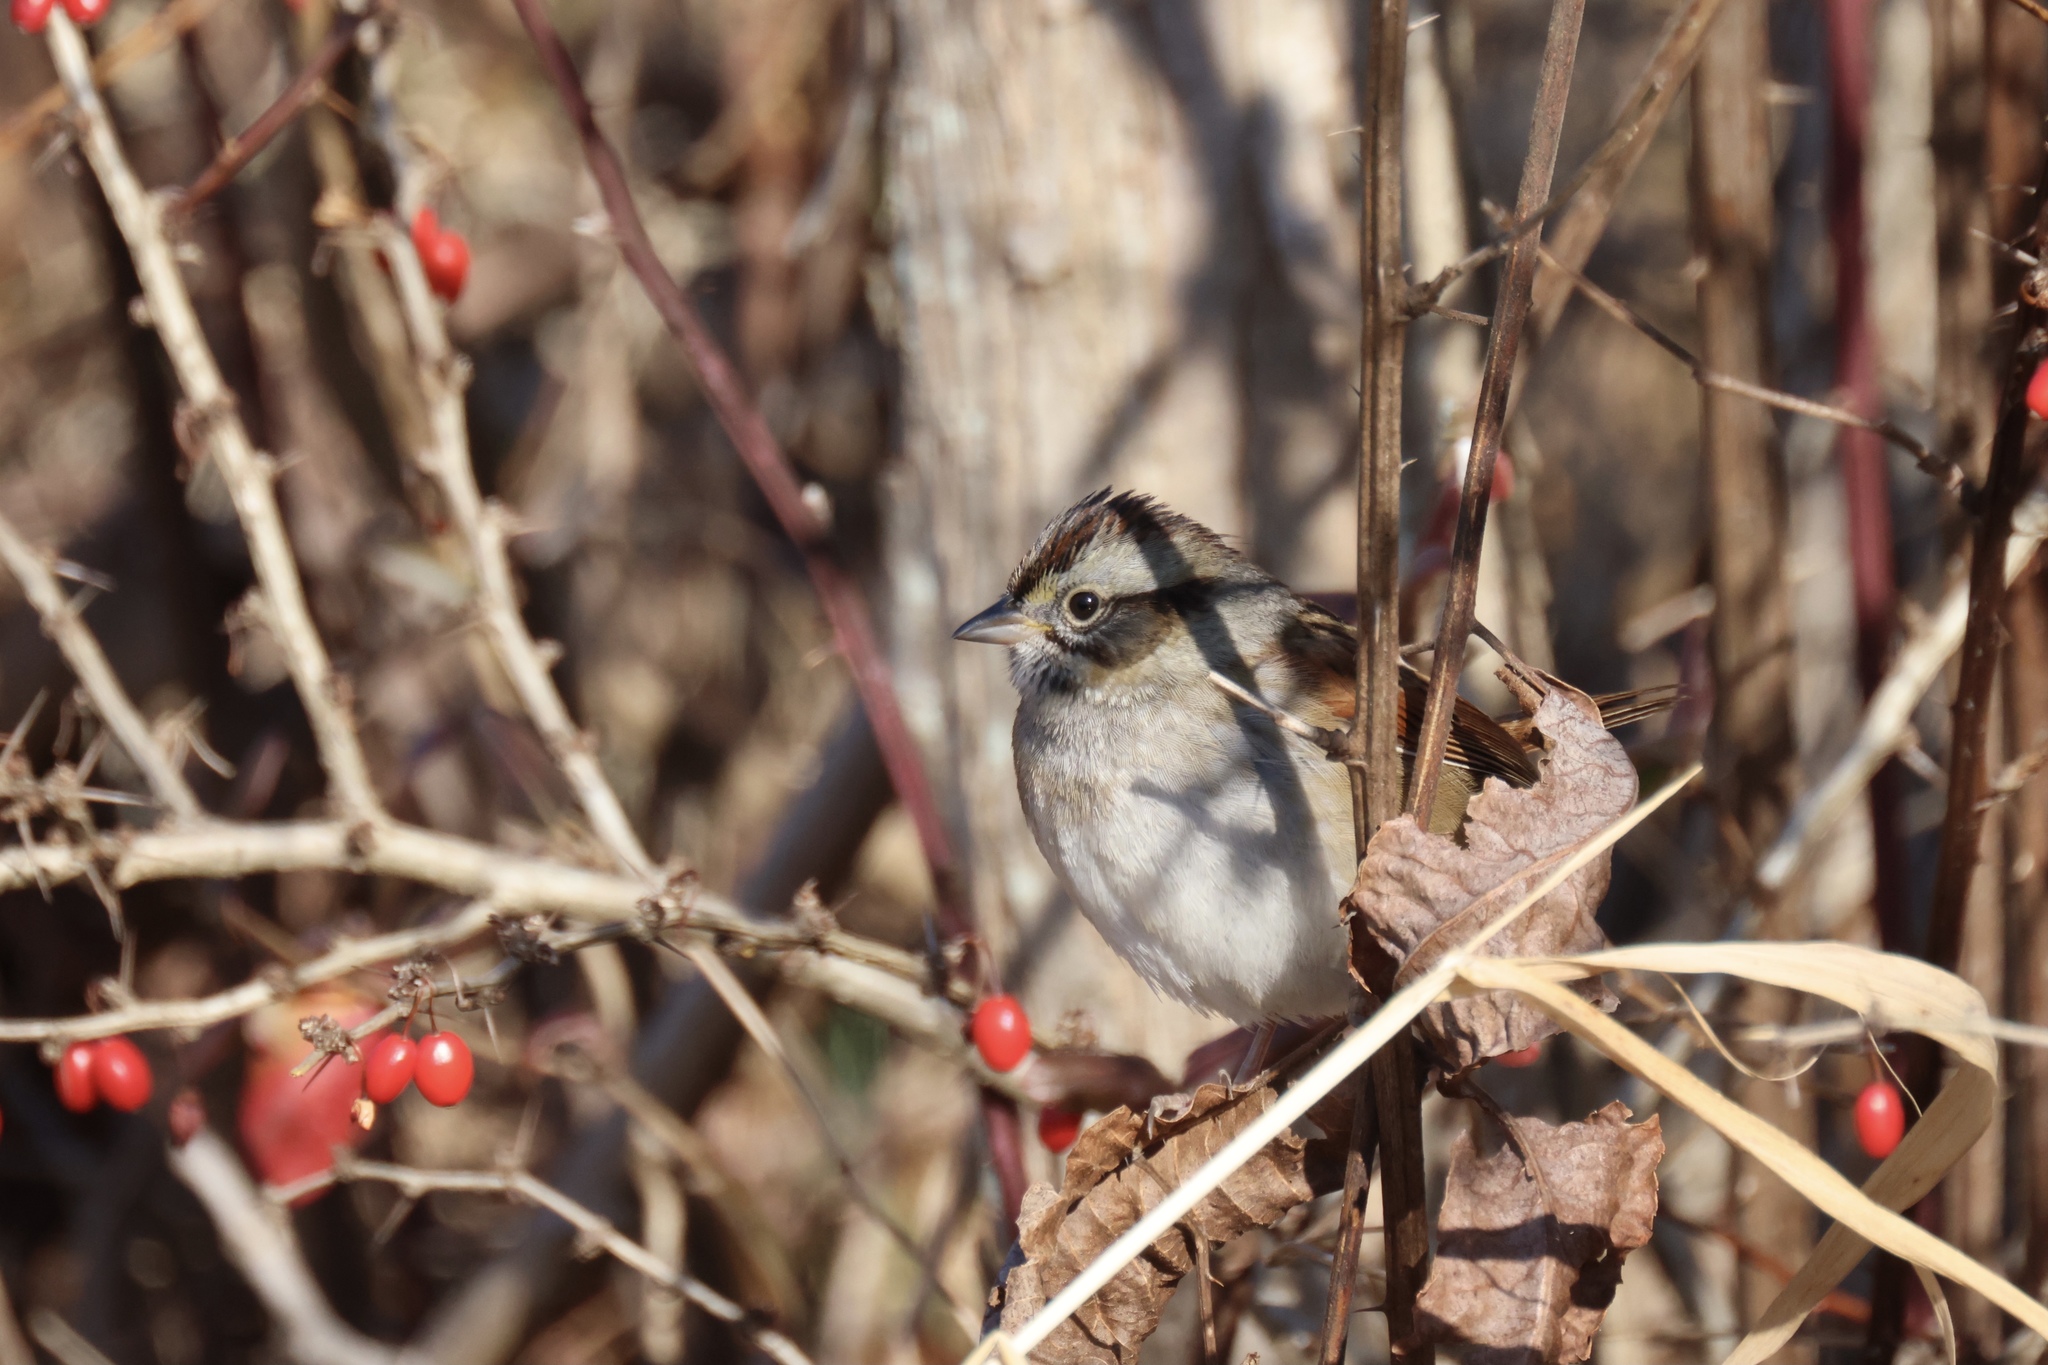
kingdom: Animalia
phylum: Chordata
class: Aves
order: Passeriformes
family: Passerellidae
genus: Melospiza
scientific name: Melospiza georgiana
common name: Swamp sparrow
